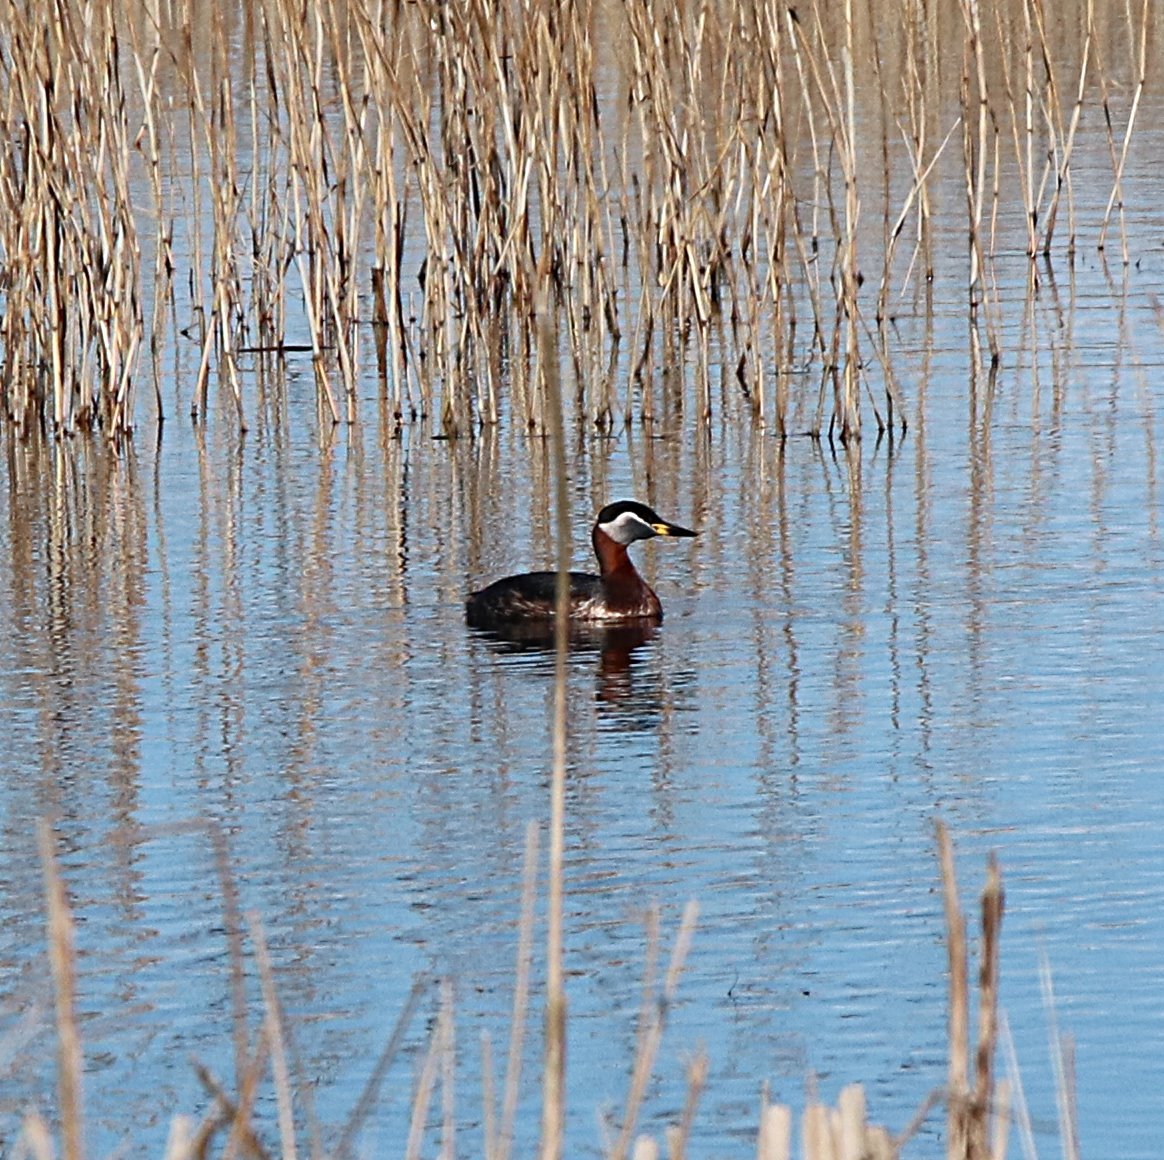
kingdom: Animalia
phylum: Chordata
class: Aves
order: Podicipediformes
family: Podicipedidae
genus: Podiceps
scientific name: Podiceps grisegena
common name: Red-necked grebe
